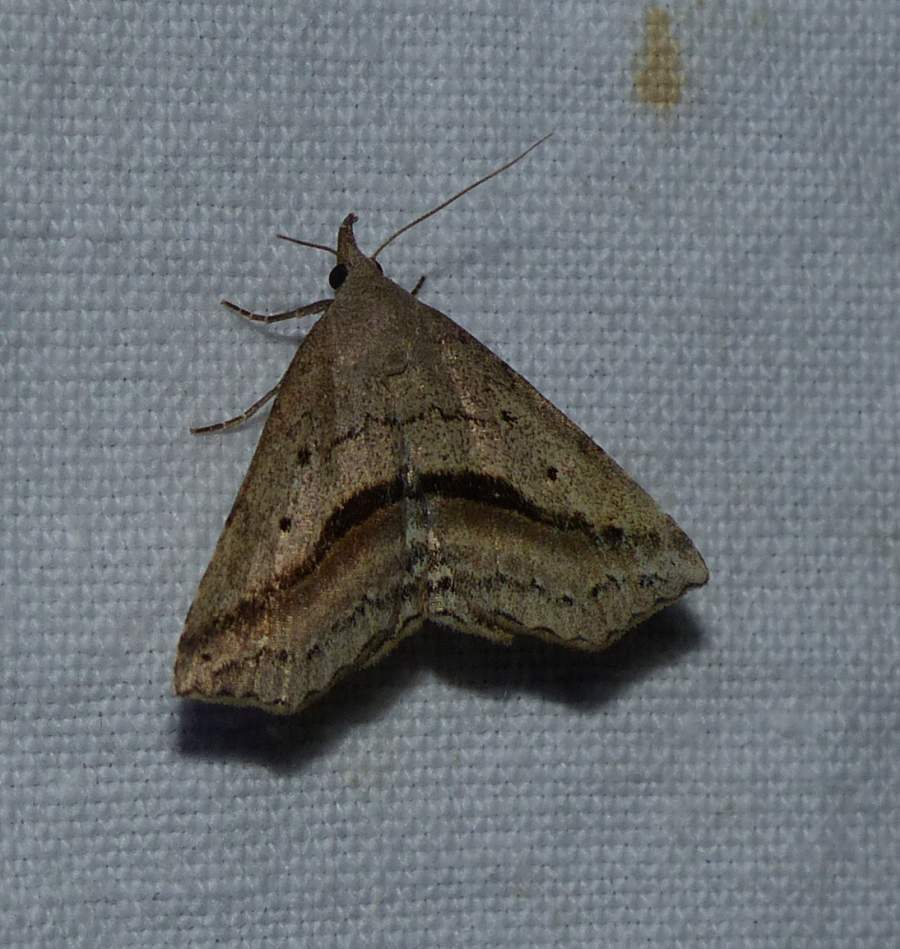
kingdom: Animalia
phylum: Arthropoda
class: Insecta
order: Lepidoptera
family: Erebidae
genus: Spargaloma
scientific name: Spargaloma perditalis
